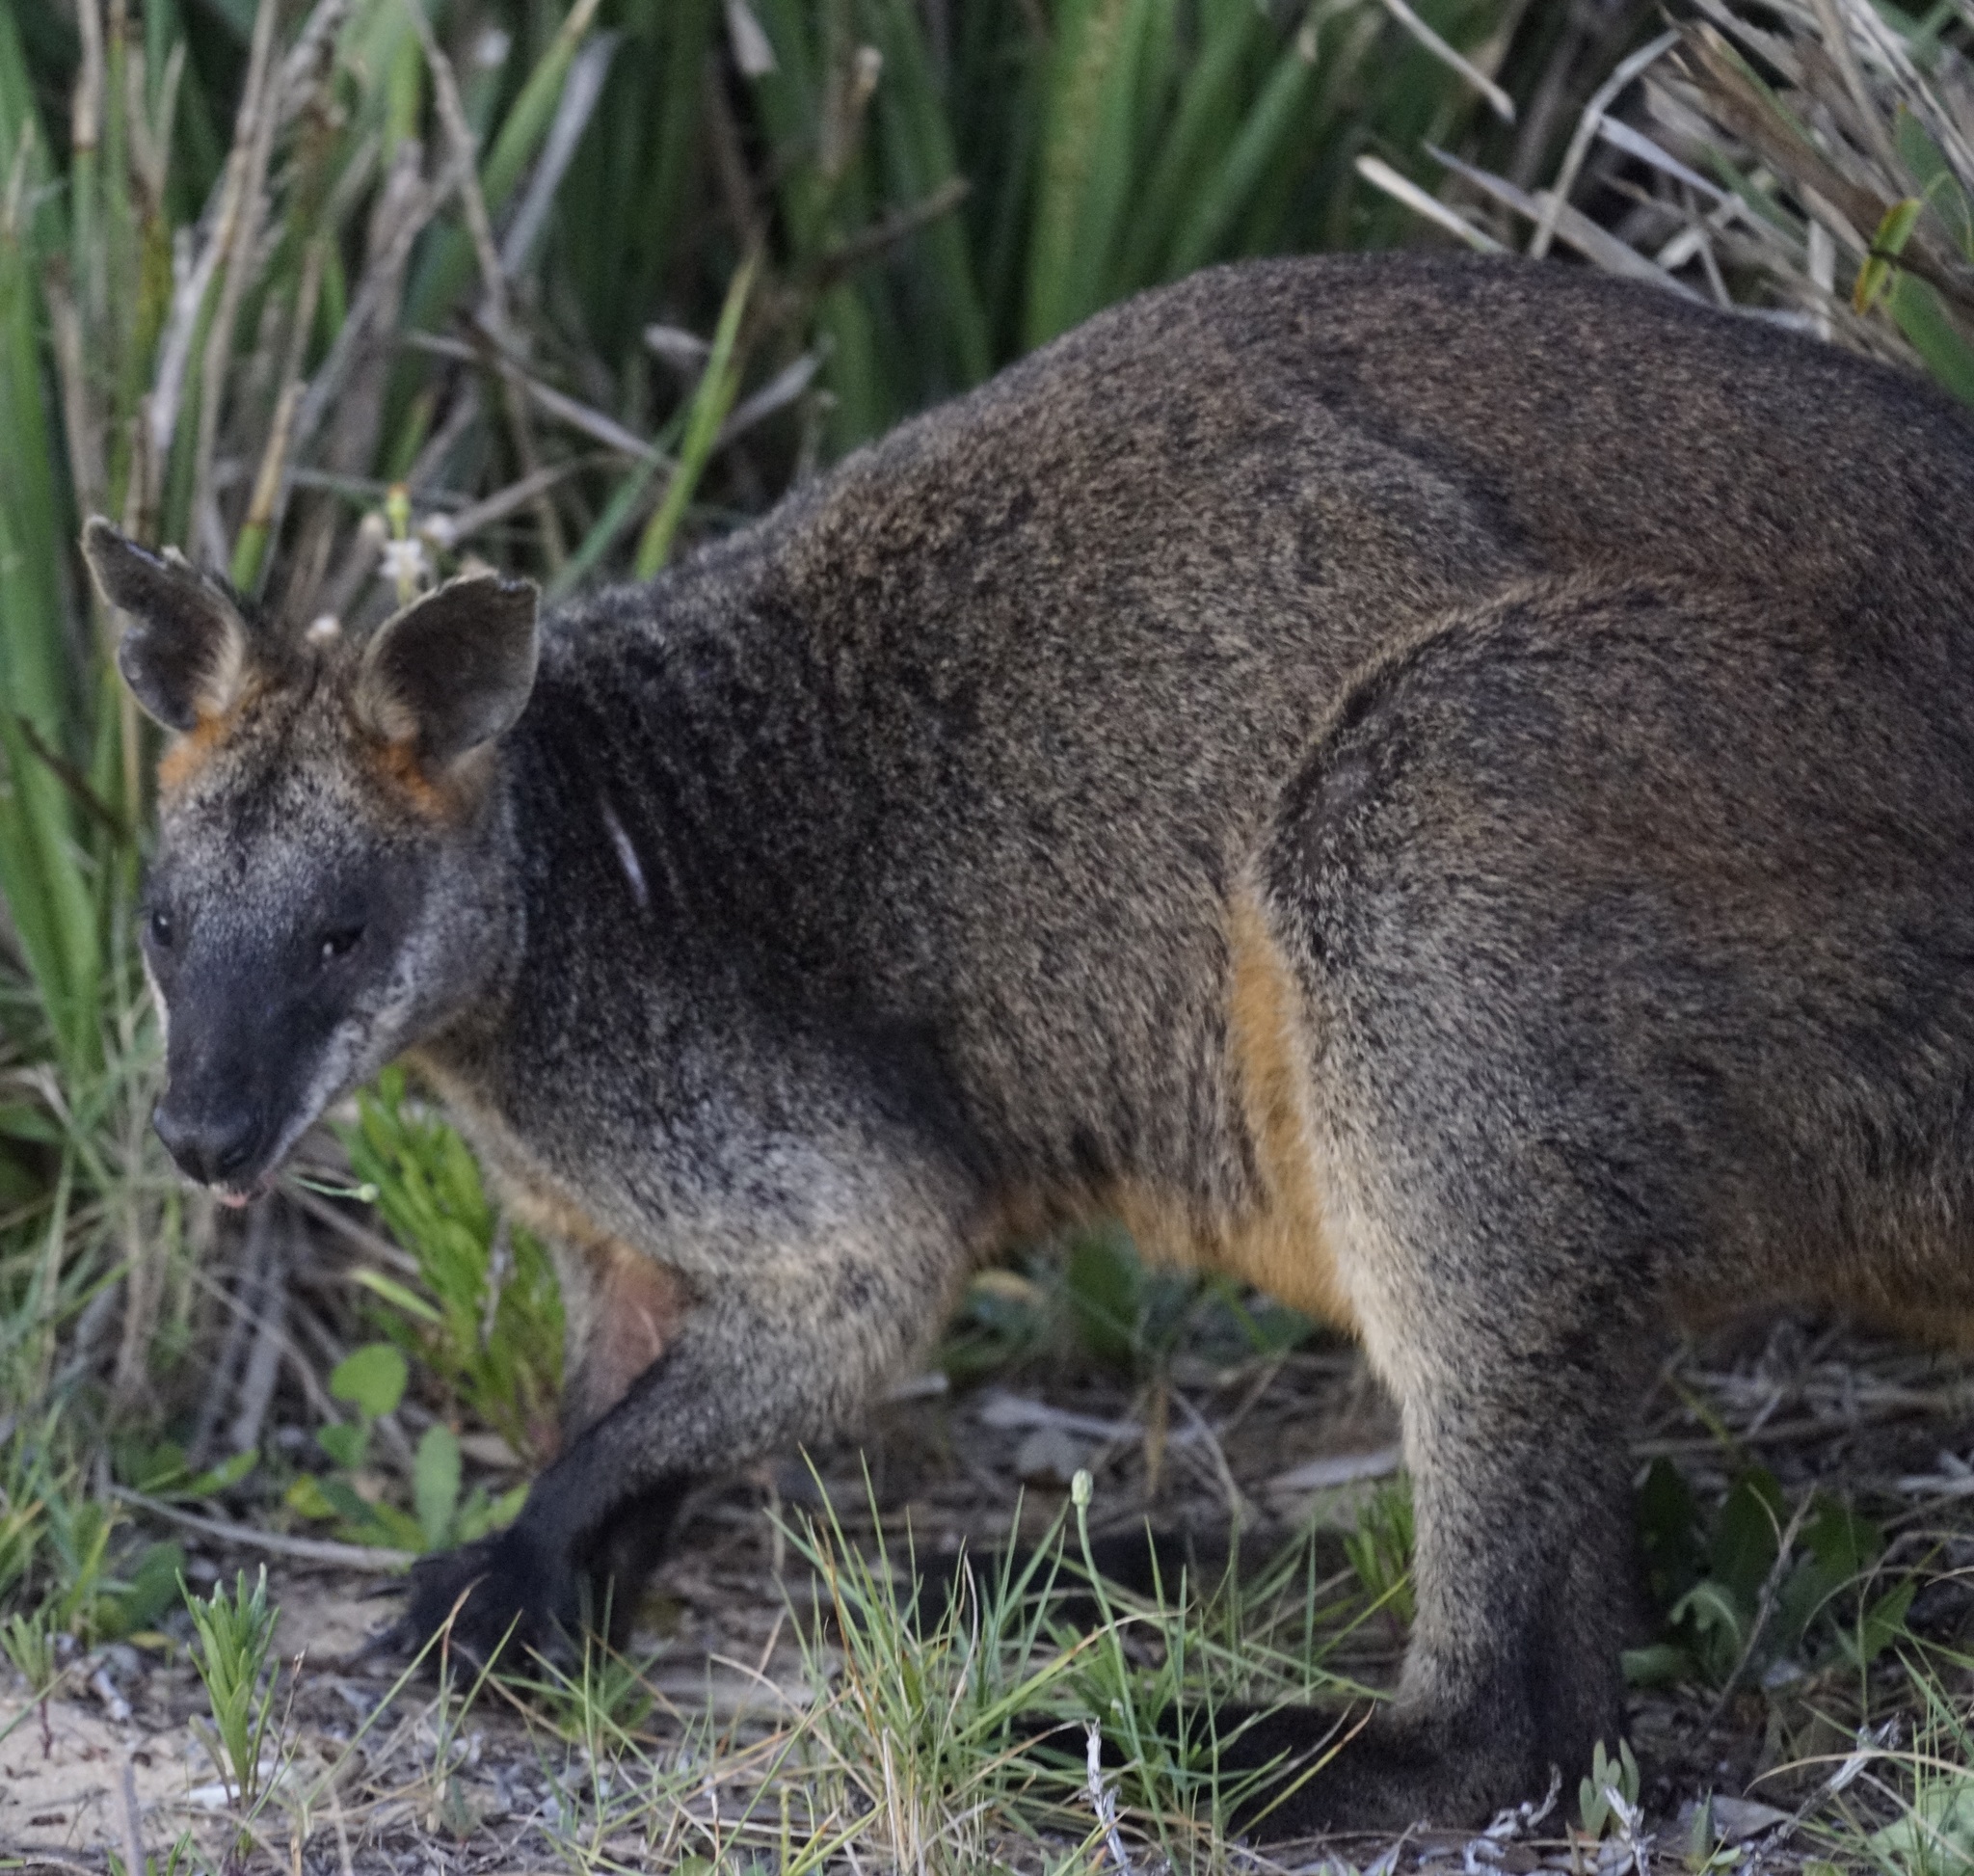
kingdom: Animalia
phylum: Chordata
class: Mammalia
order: Diprotodontia
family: Macropodidae
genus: Wallabia
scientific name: Wallabia bicolor
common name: Swamp wallaby
